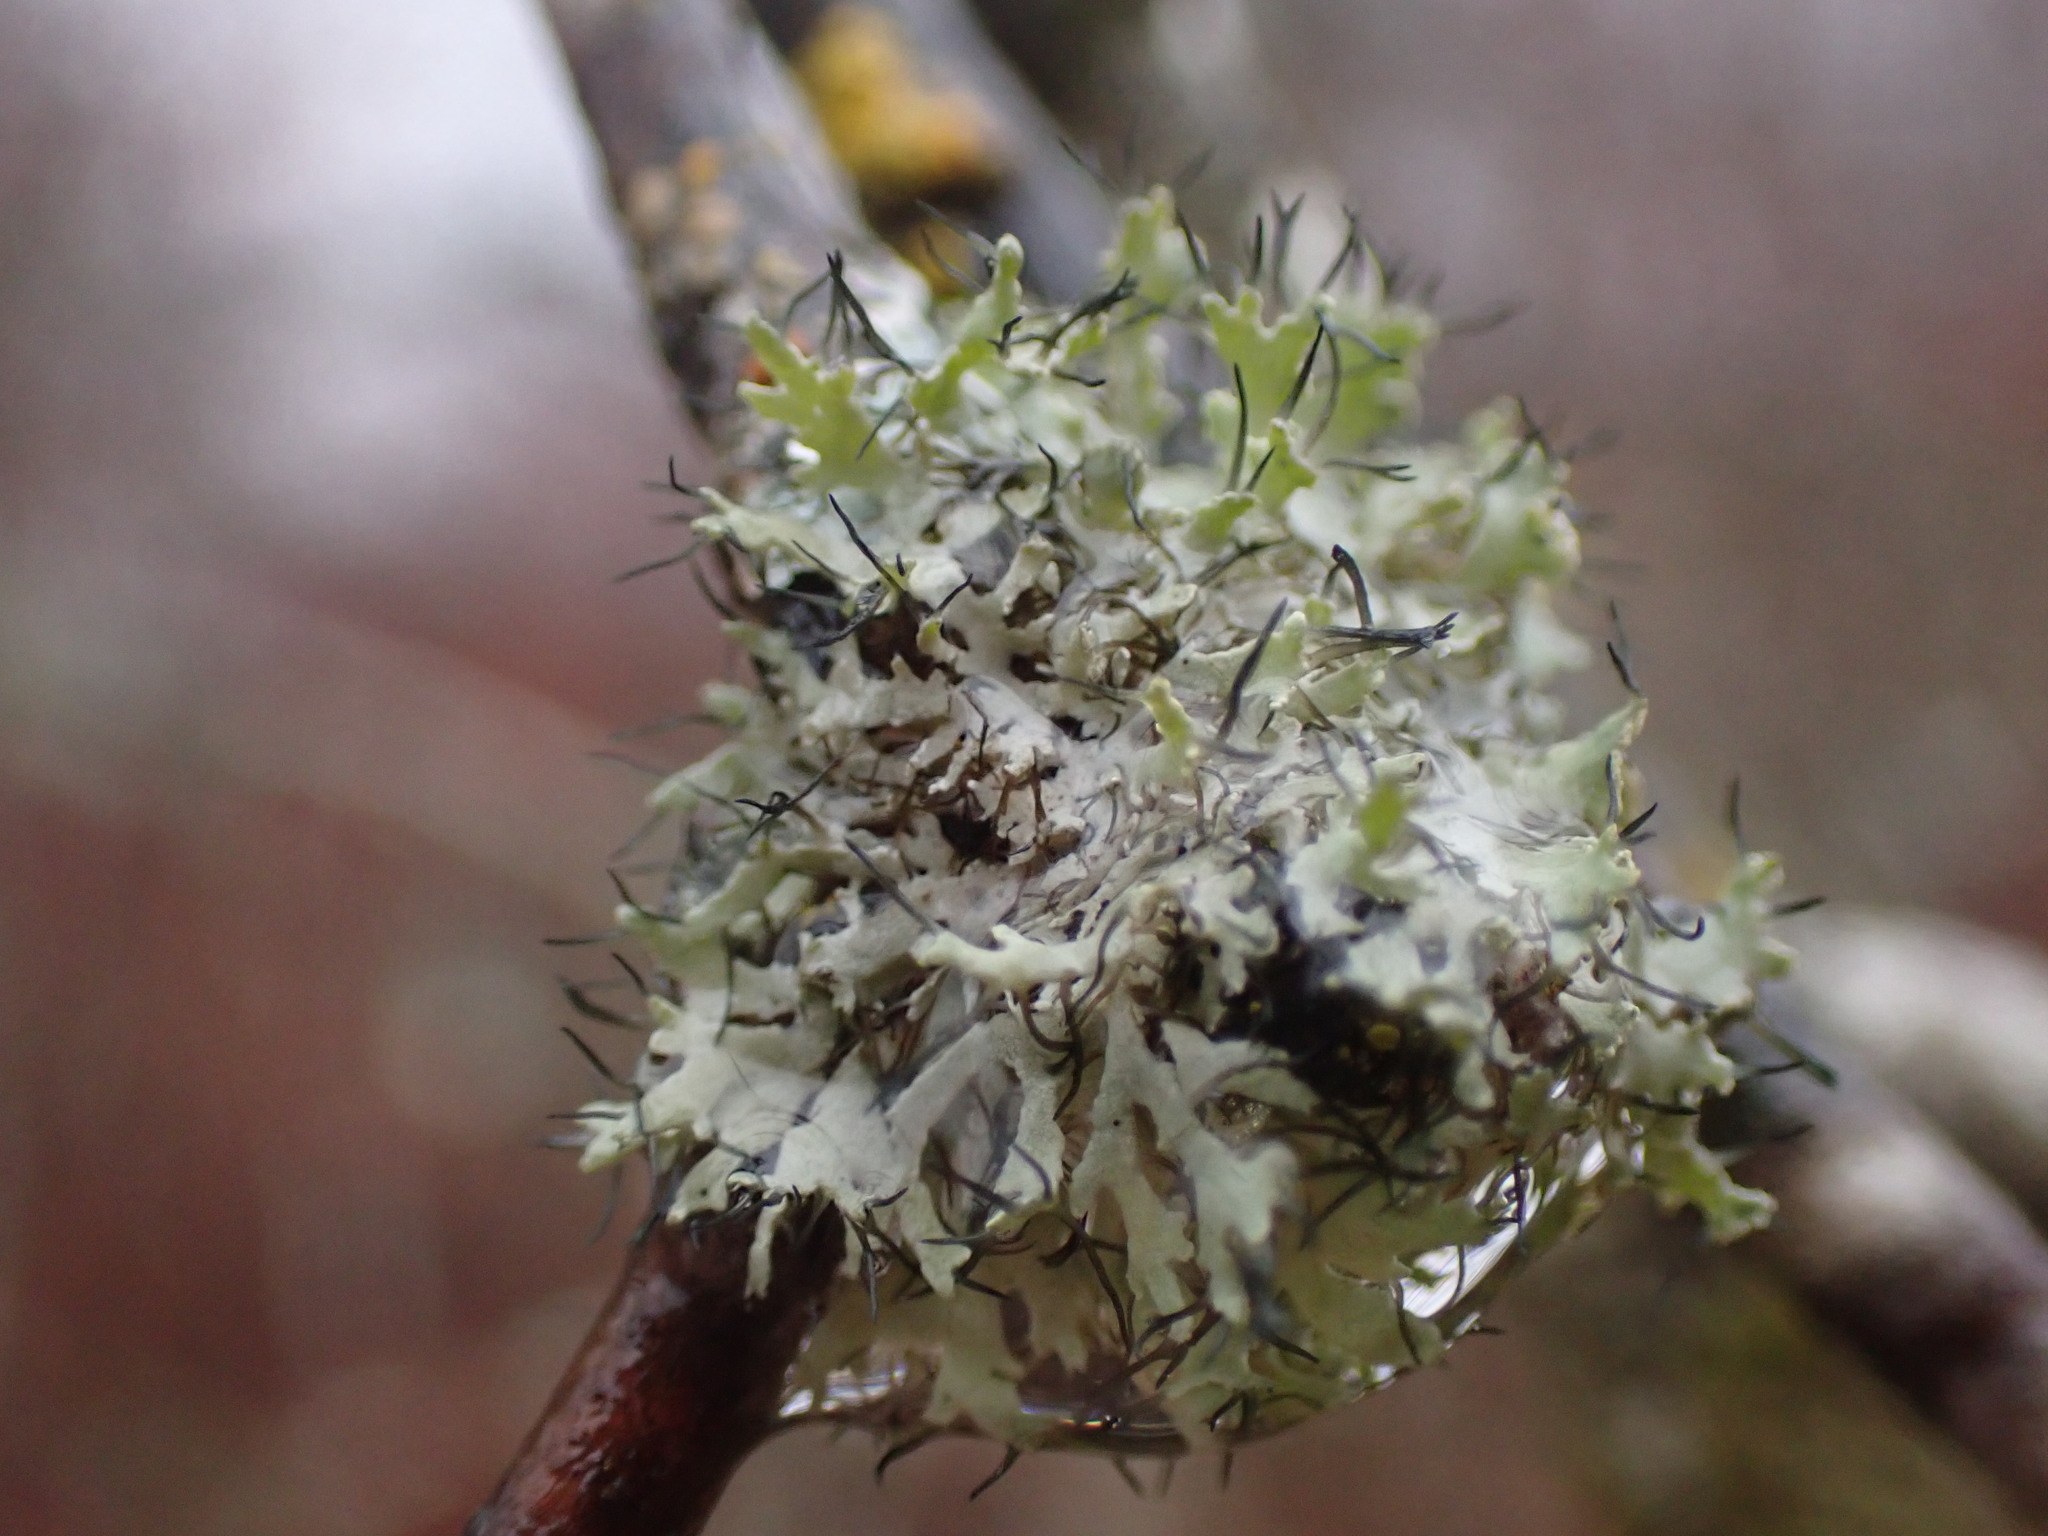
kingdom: Fungi
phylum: Ascomycota
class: Lecanoromycetes
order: Caliciales
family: Physciaceae
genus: Physcia
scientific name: Physcia tenella
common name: Fringed rosette lichen
